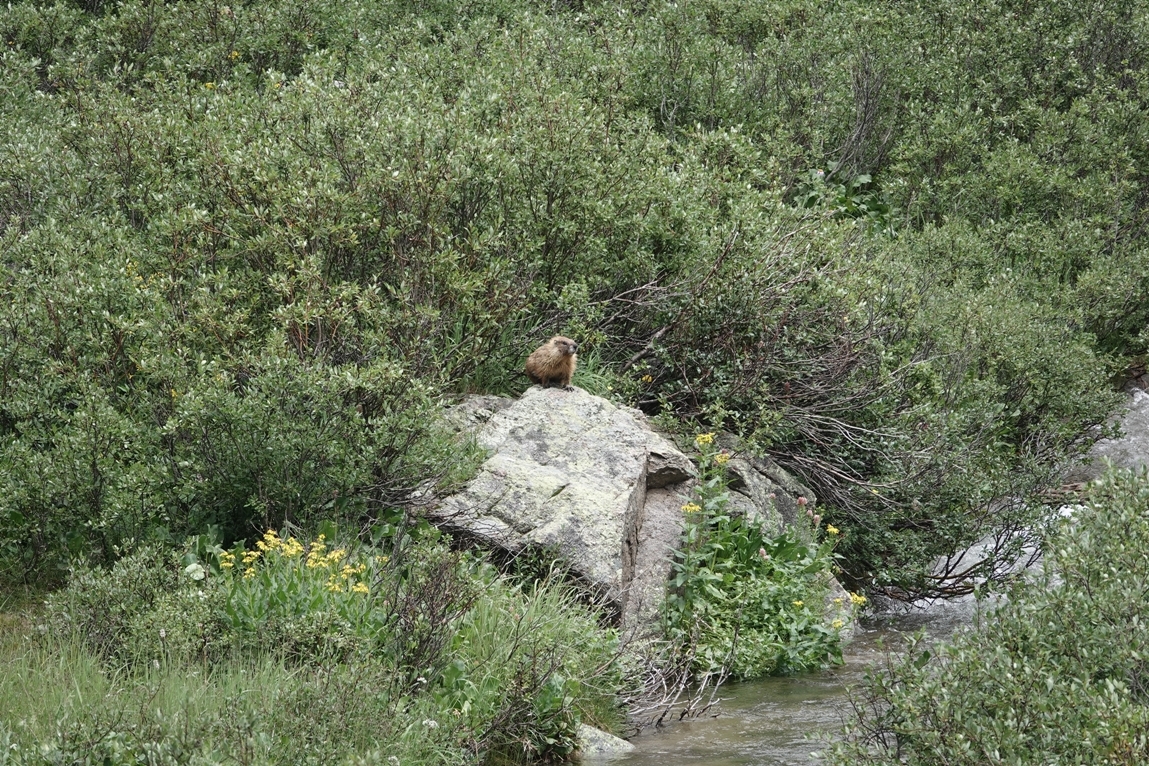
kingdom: Animalia
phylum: Chordata
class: Mammalia
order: Rodentia
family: Sciuridae
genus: Marmota
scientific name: Marmota flaviventris
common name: Yellow-bellied marmot
